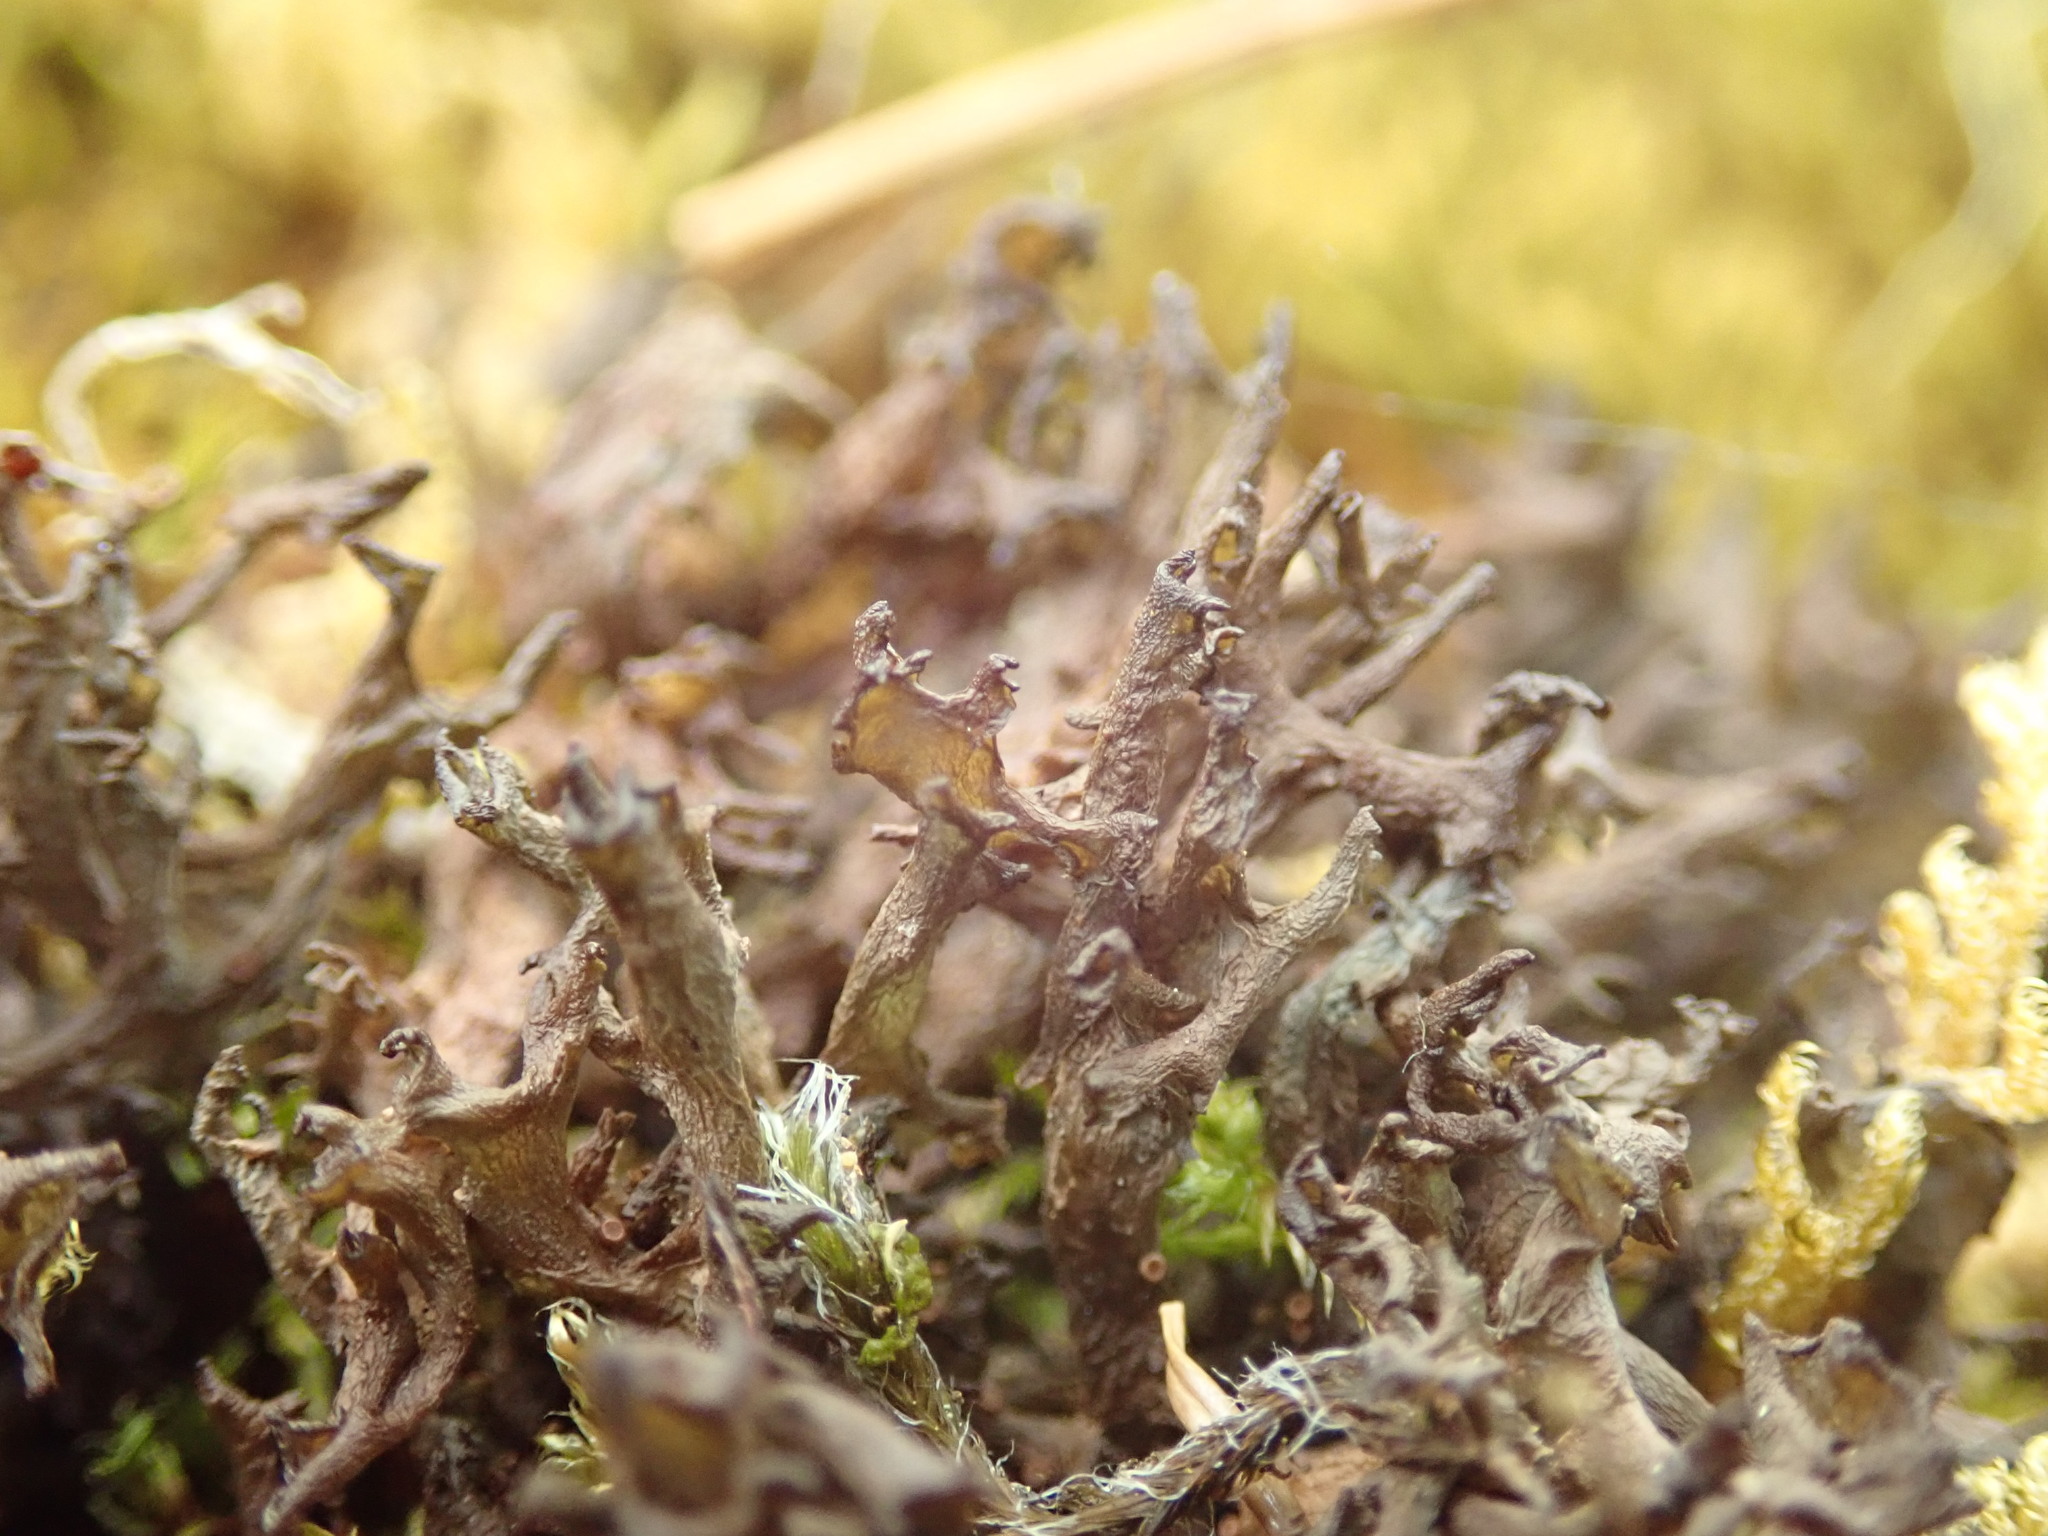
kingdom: Fungi
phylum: Ascomycota
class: Lecanoromycetes
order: Peltigerales
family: Collemataceae
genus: Scytinium
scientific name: Scytinium palmatum
